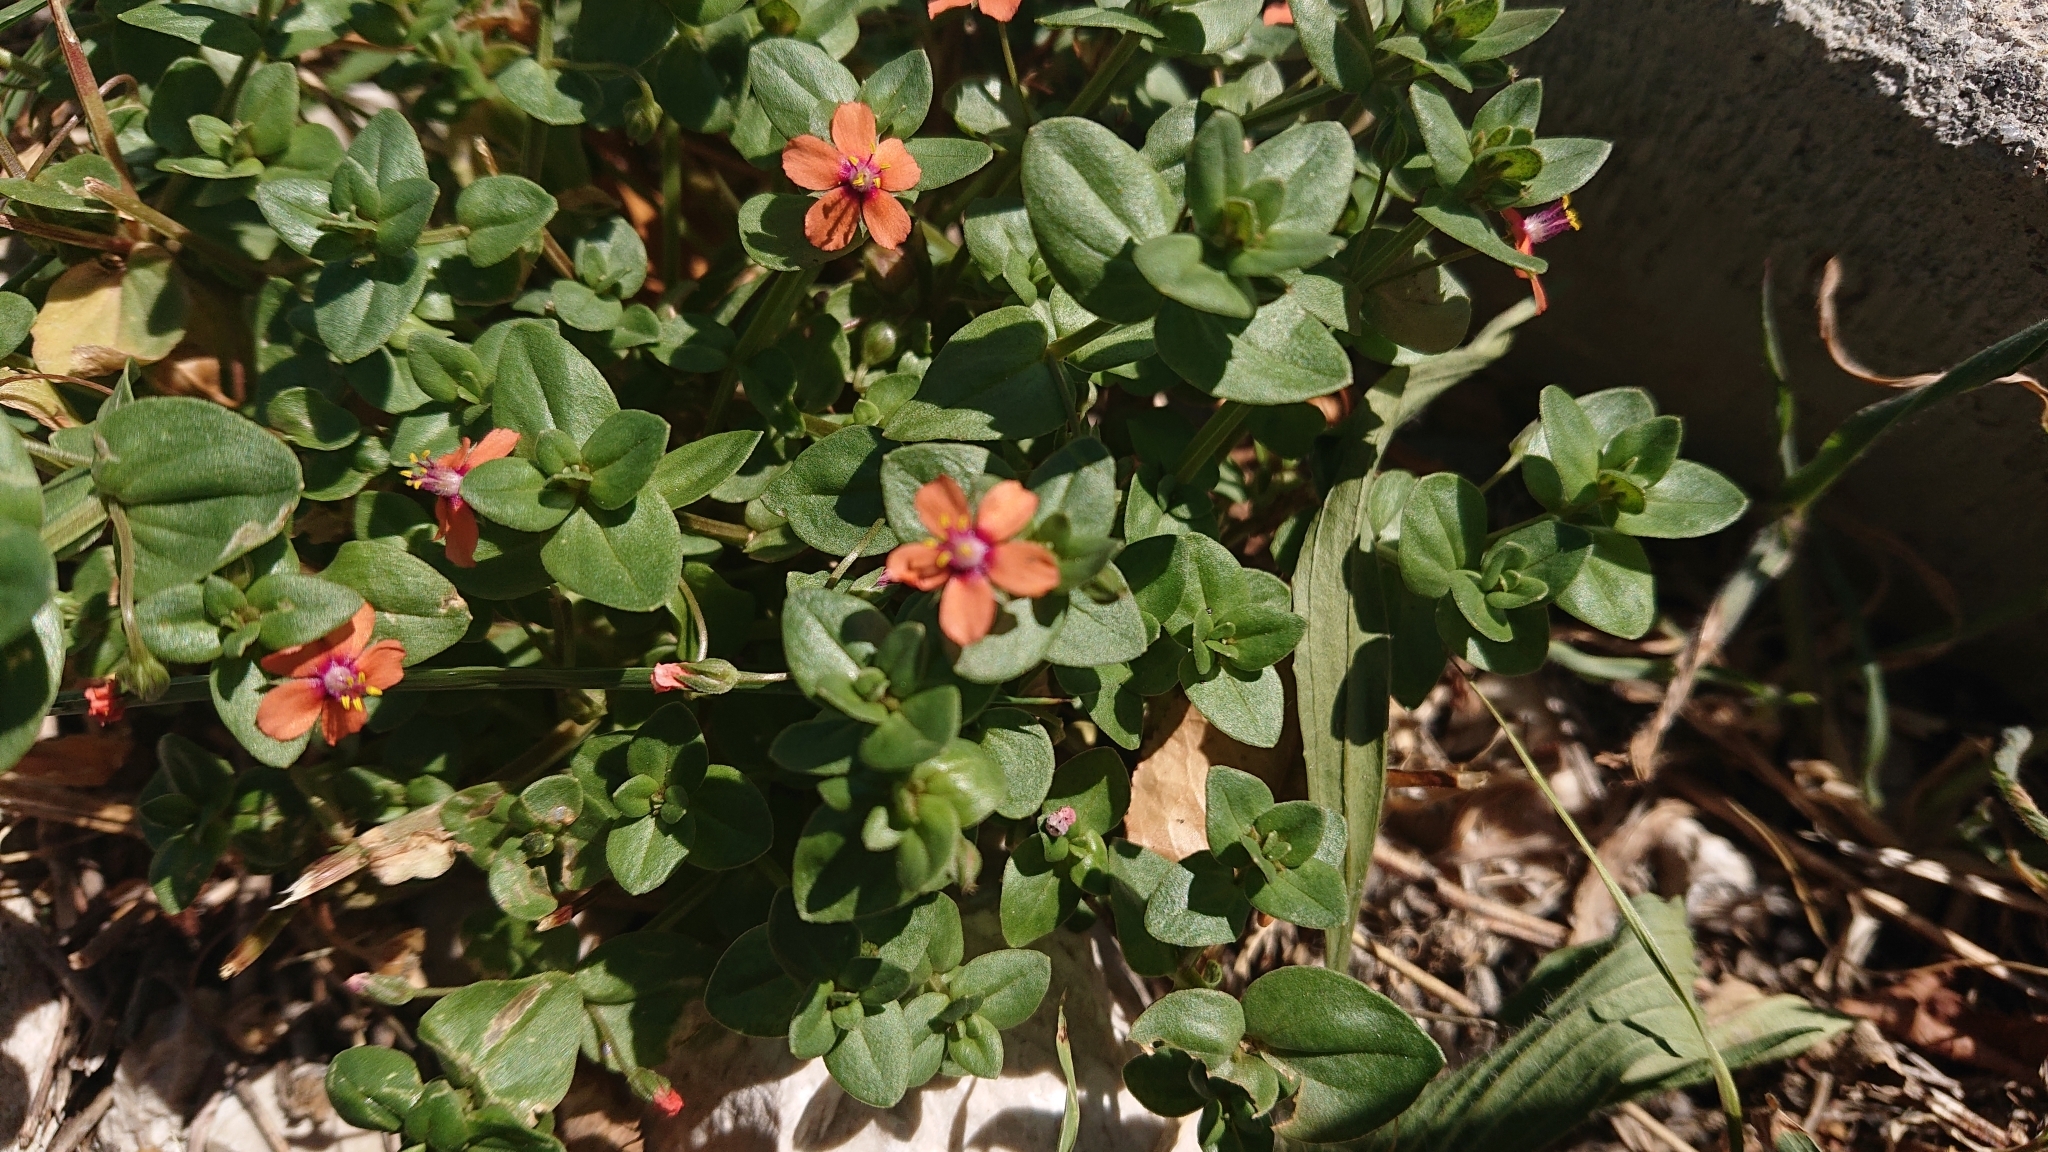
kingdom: Plantae
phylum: Tracheophyta
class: Magnoliopsida
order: Ericales
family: Primulaceae
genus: Lysimachia
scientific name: Lysimachia arvensis
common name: Scarlet pimpernel
